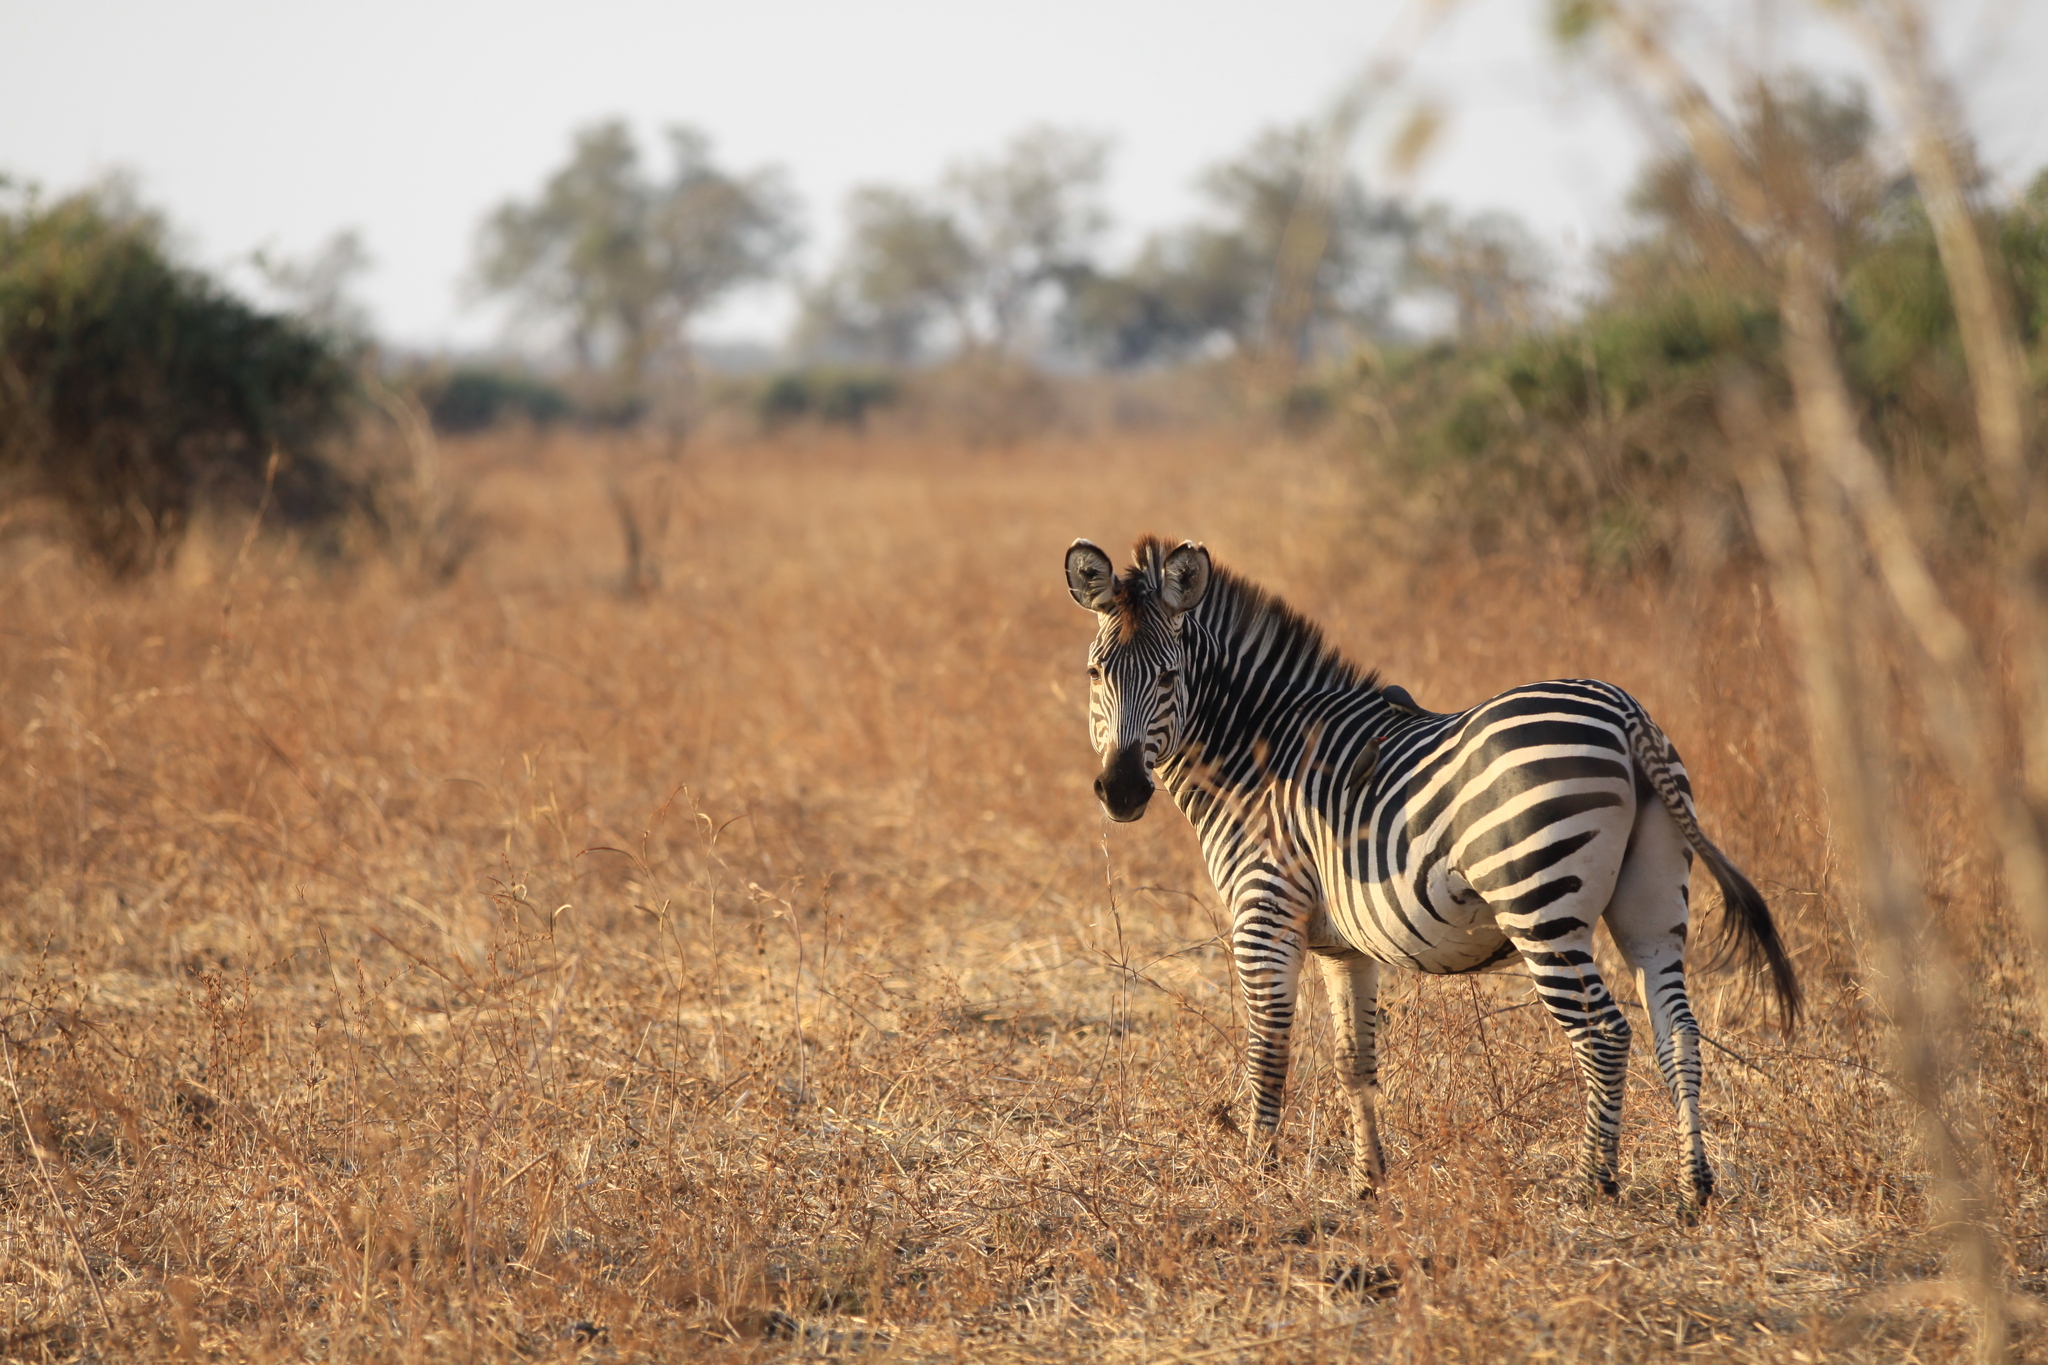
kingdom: Animalia
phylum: Chordata
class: Mammalia
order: Perissodactyla
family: Equidae
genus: Equus
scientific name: Equus quagga
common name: Plains zebra
